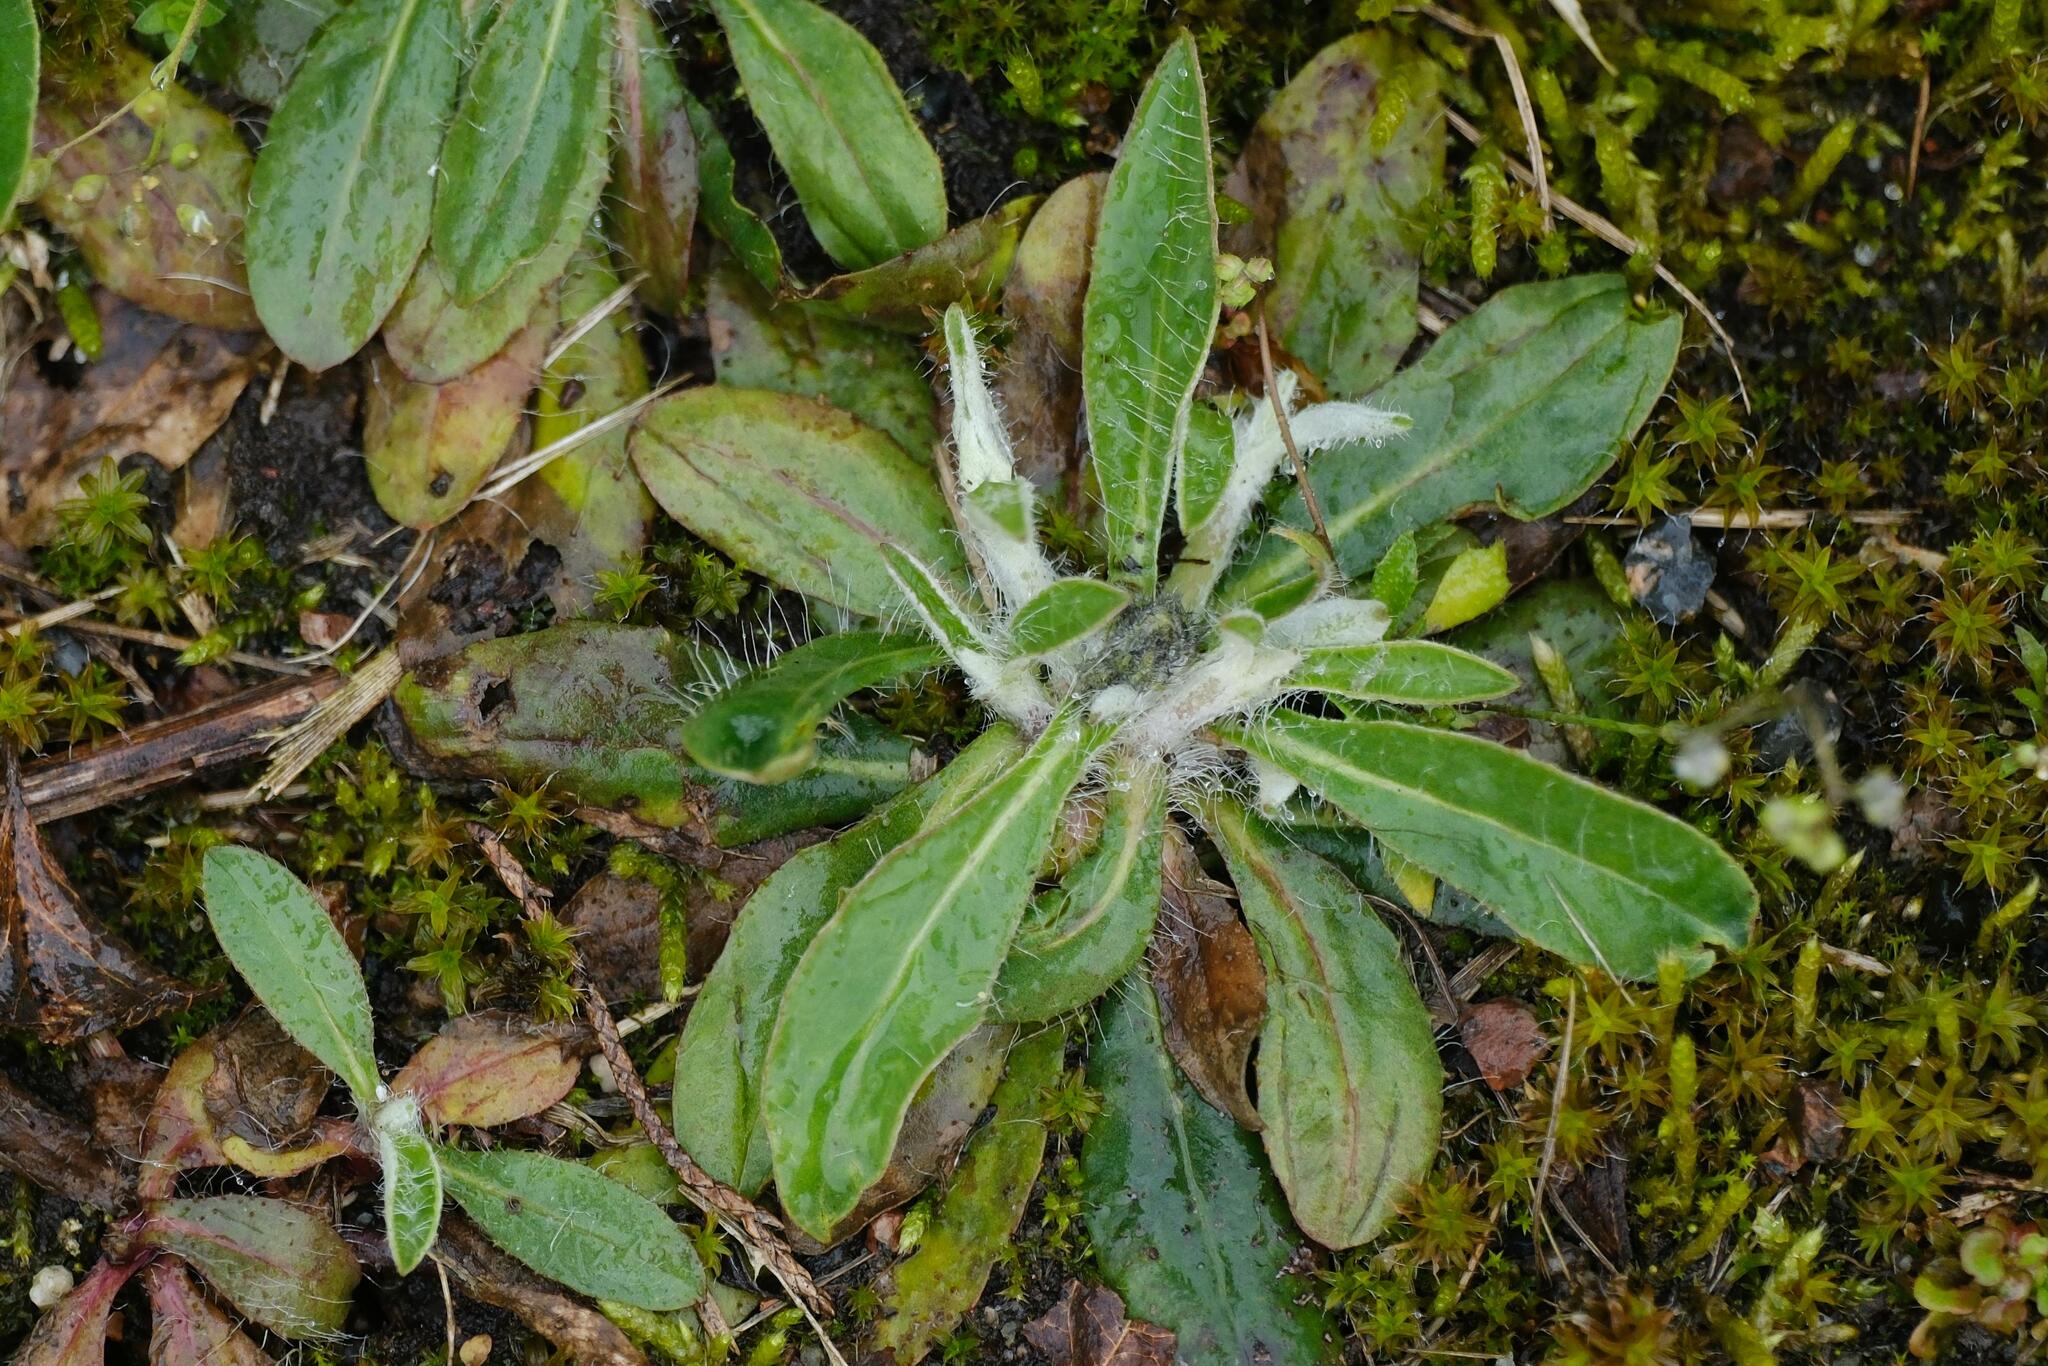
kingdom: Plantae
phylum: Tracheophyta
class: Magnoliopsida
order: Asterales
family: Asteraceae
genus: Pilosella
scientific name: Pilosella officinarum
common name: Mouse-ear hawkweed
